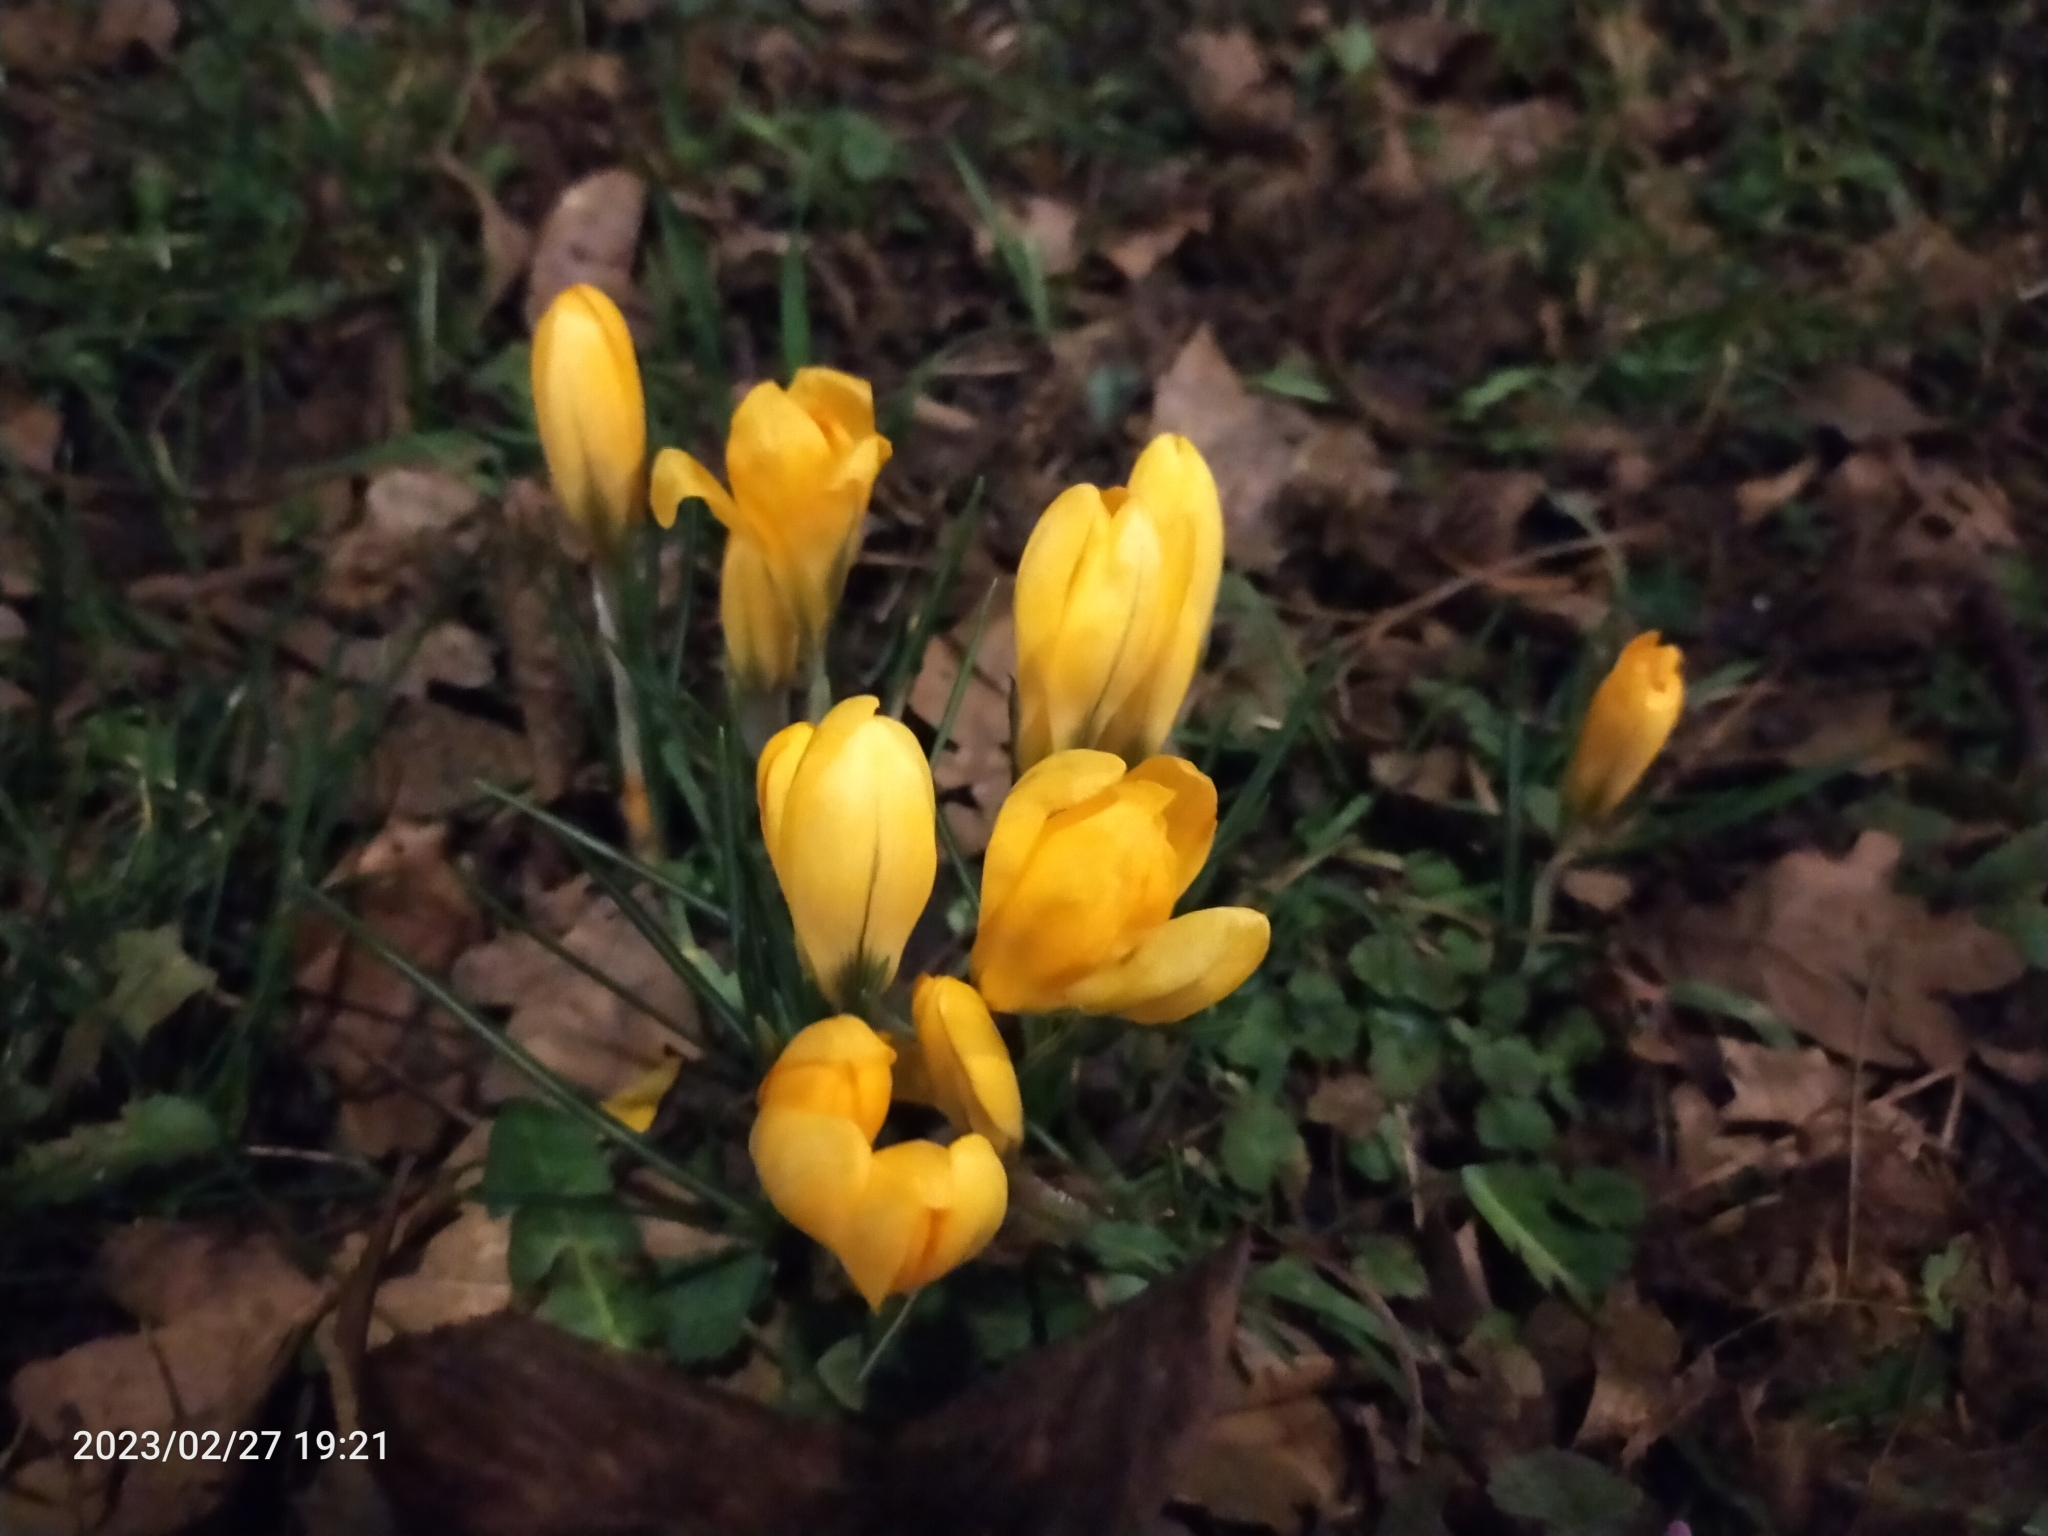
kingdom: Plantae
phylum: Tracheophyta
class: Liliopsida
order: Asparagales
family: Iridaceae
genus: Crocus
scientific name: Crocus luteus
